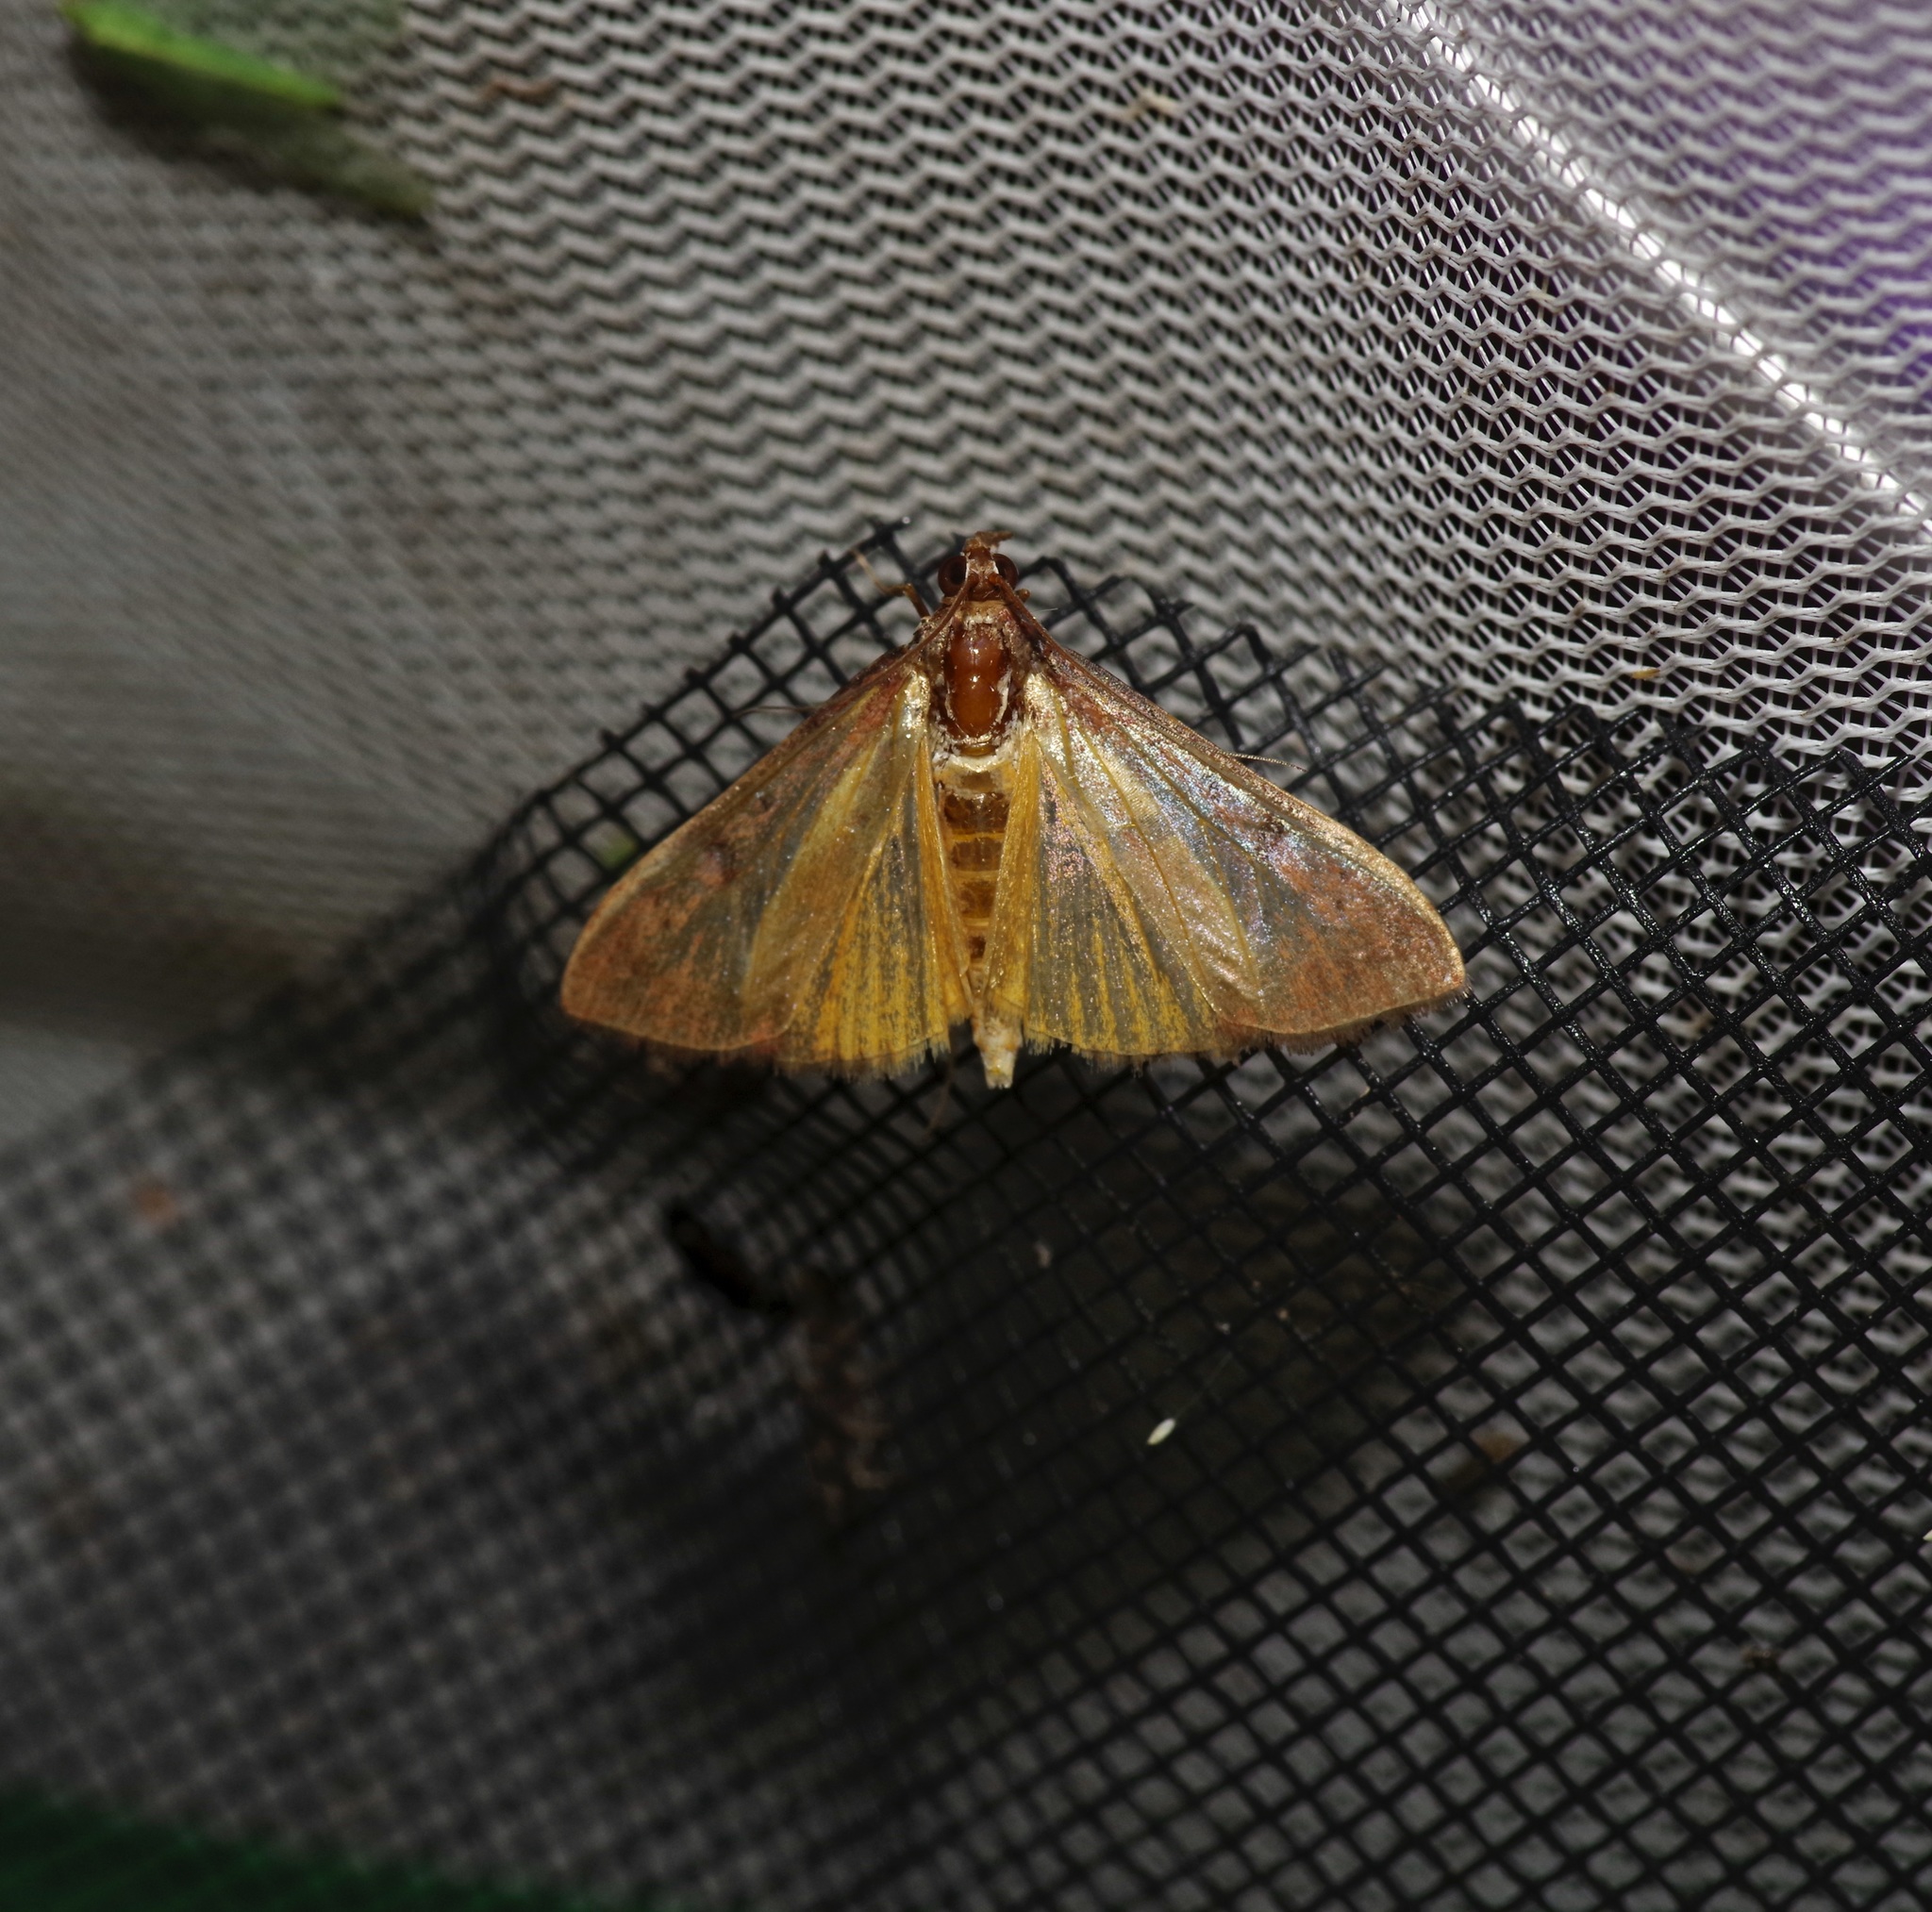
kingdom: Animalia
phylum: Arthropoda
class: Insecta
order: Lepidoptera
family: Crambidae
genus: Uresiphita
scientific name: Uresiphita reversalis
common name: Genista broom moth
